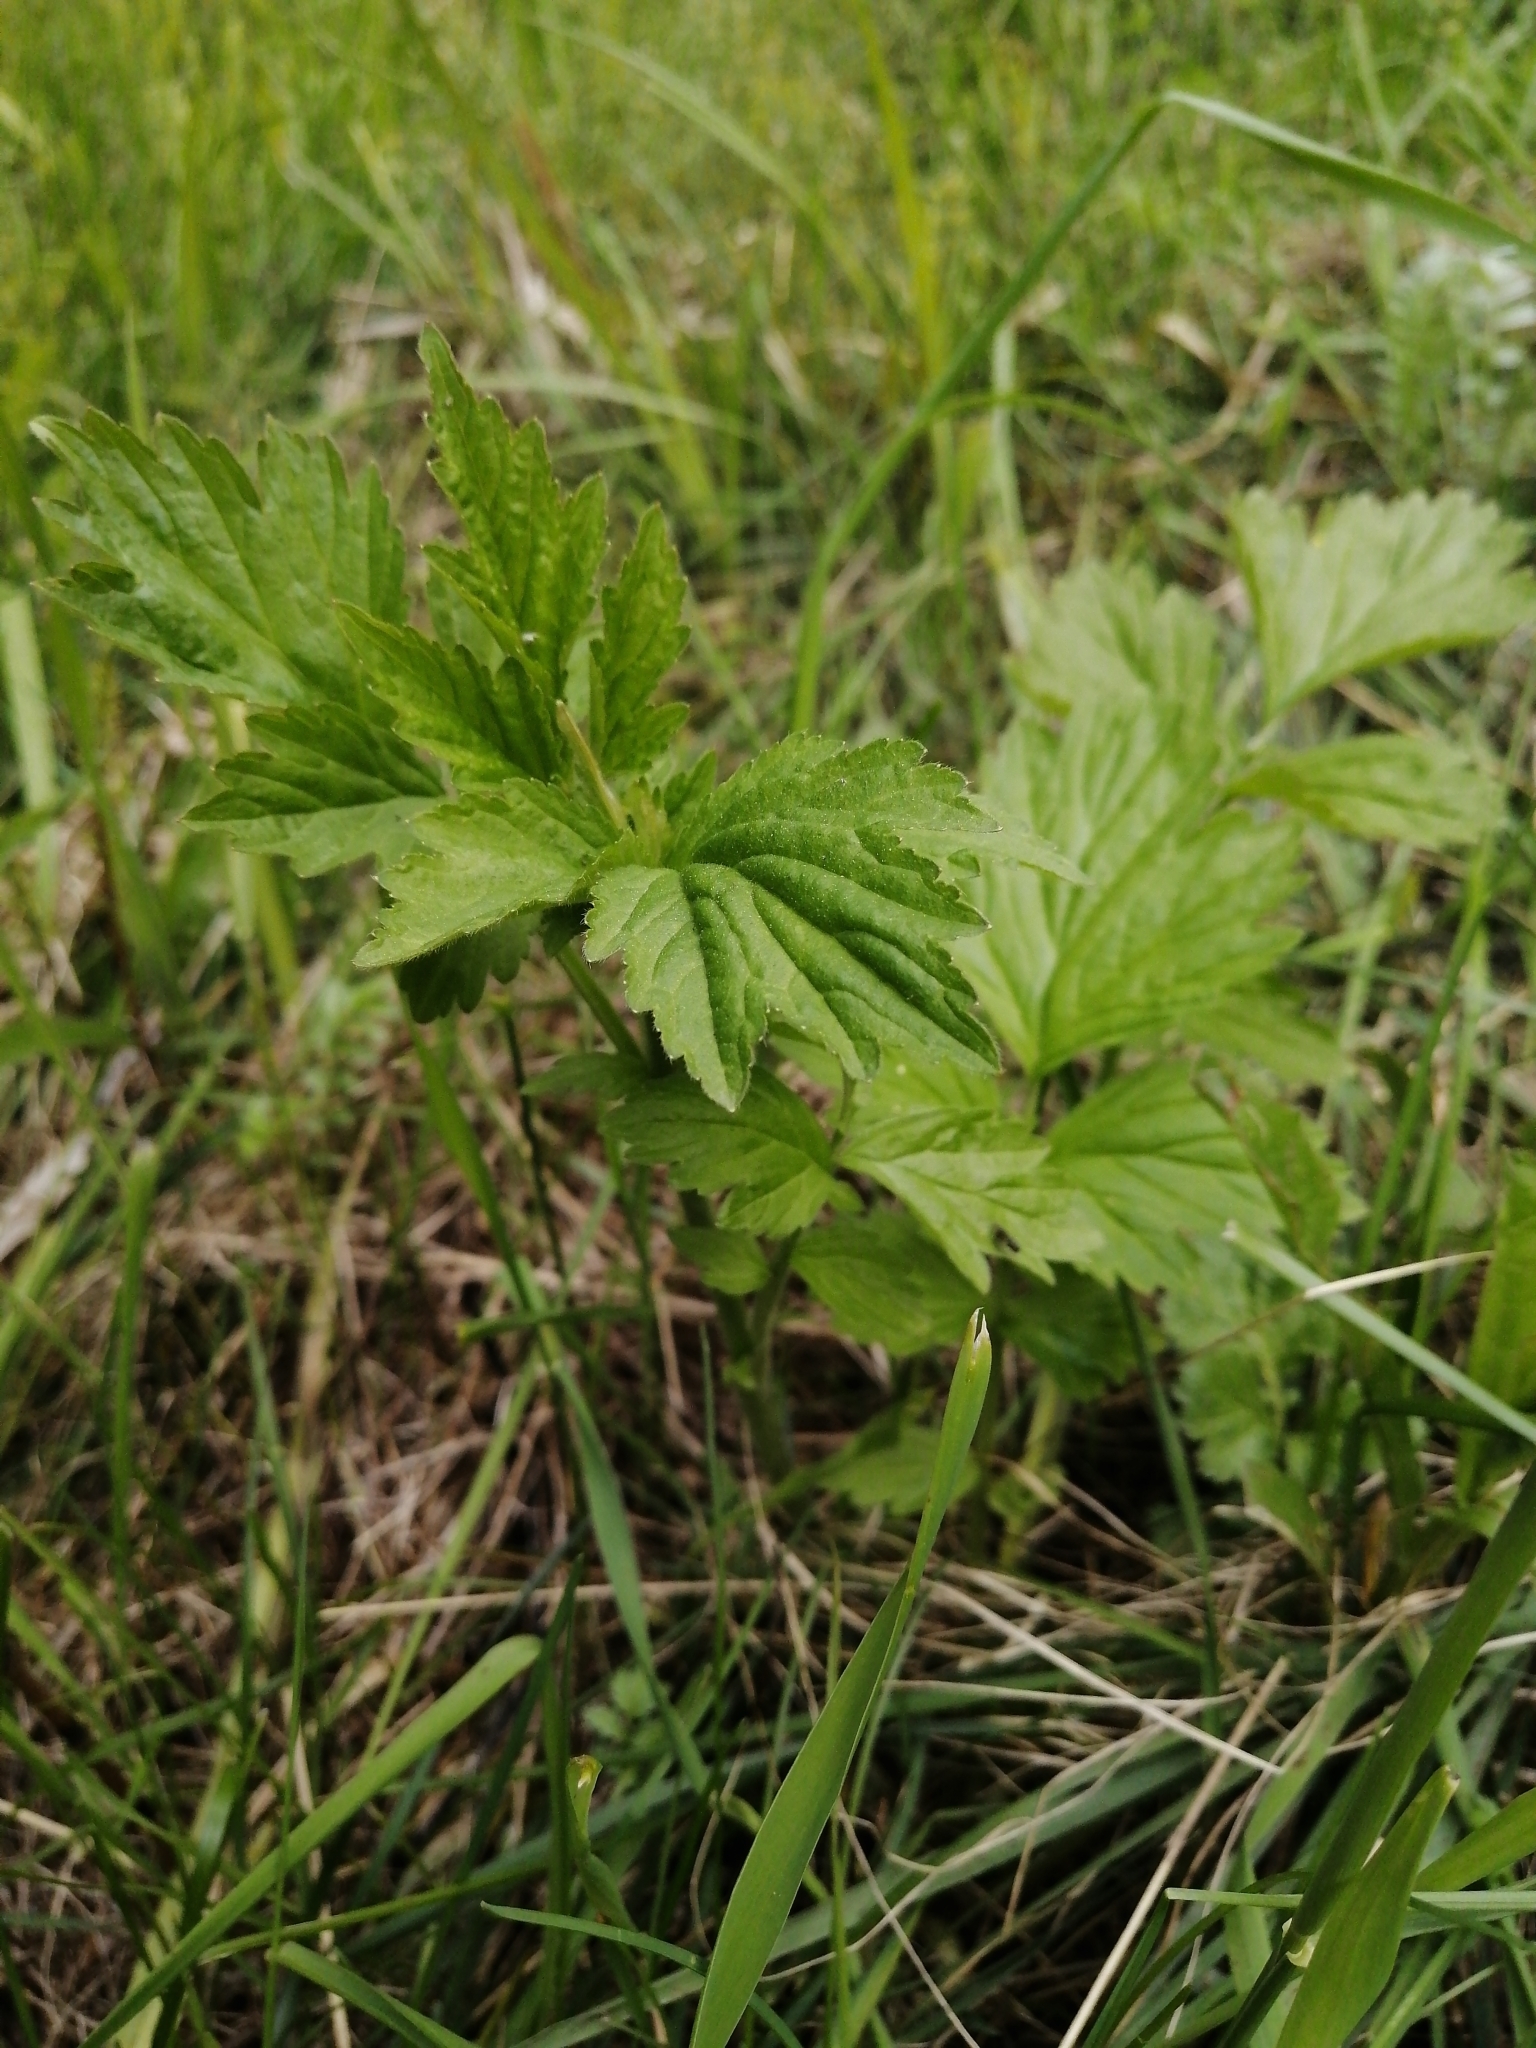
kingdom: Plantae
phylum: Tracheophyta
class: Magnoliopsida
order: Rosales
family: Rosaceae
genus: Geum
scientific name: Geum aleppicum
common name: Yellow avens
